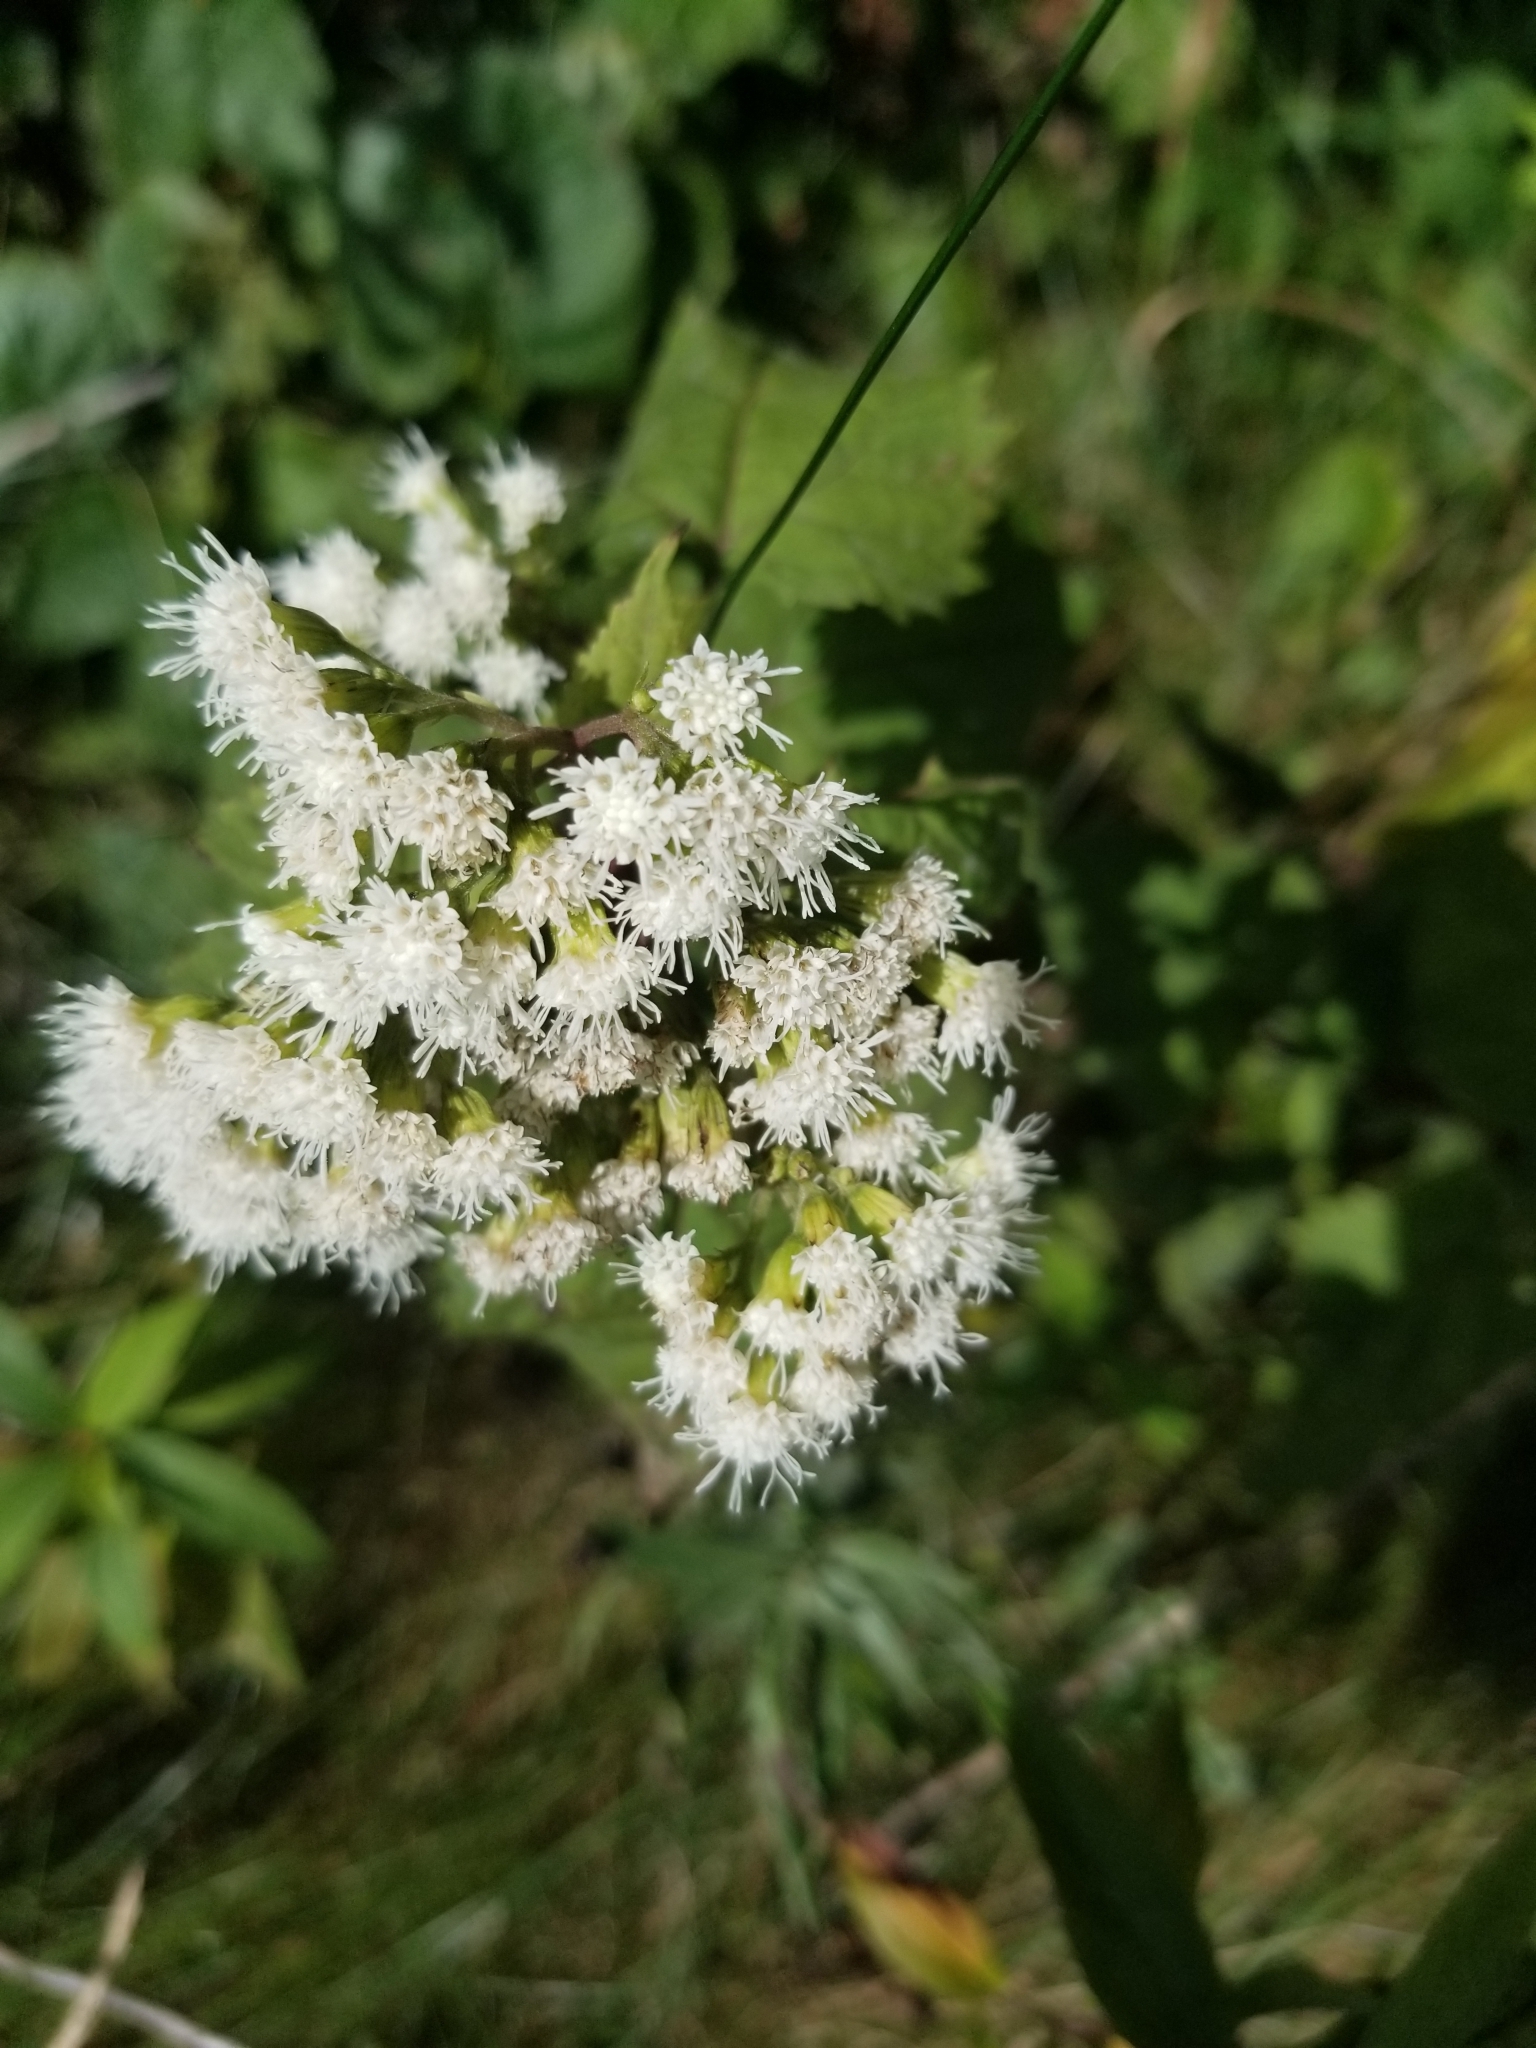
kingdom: Plantae
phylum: Tracheophyta
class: Magnoliopsida
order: Asterales
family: Asteraceae
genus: Ageratina
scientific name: Ageratina altissima
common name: White snakeroot
